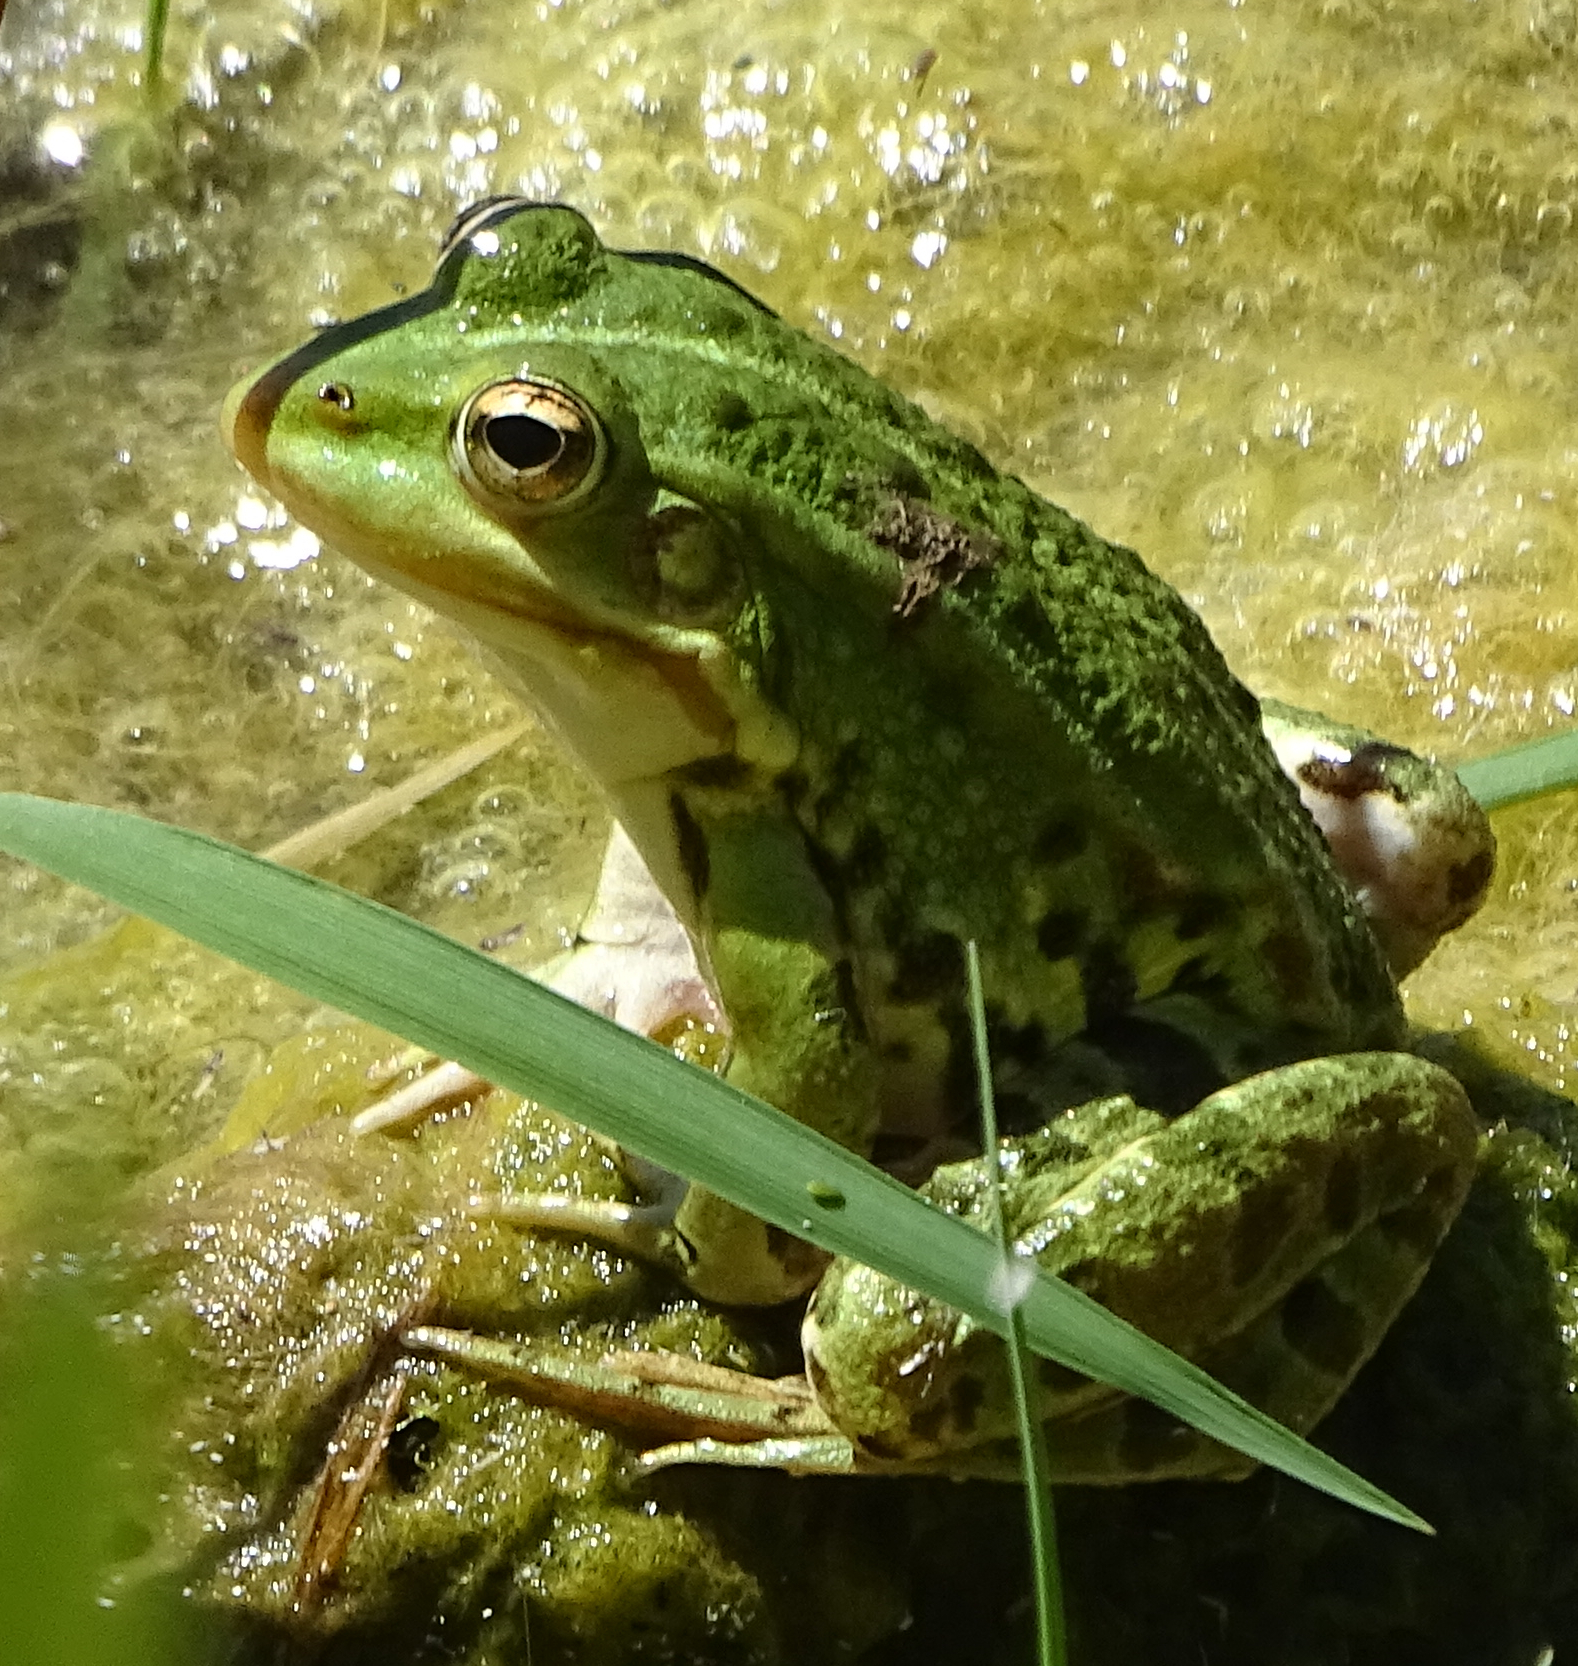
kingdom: Animalia
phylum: Chordata
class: Amphibia
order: Anura
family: Ranidae
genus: Pelophylax
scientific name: Pelophylax
